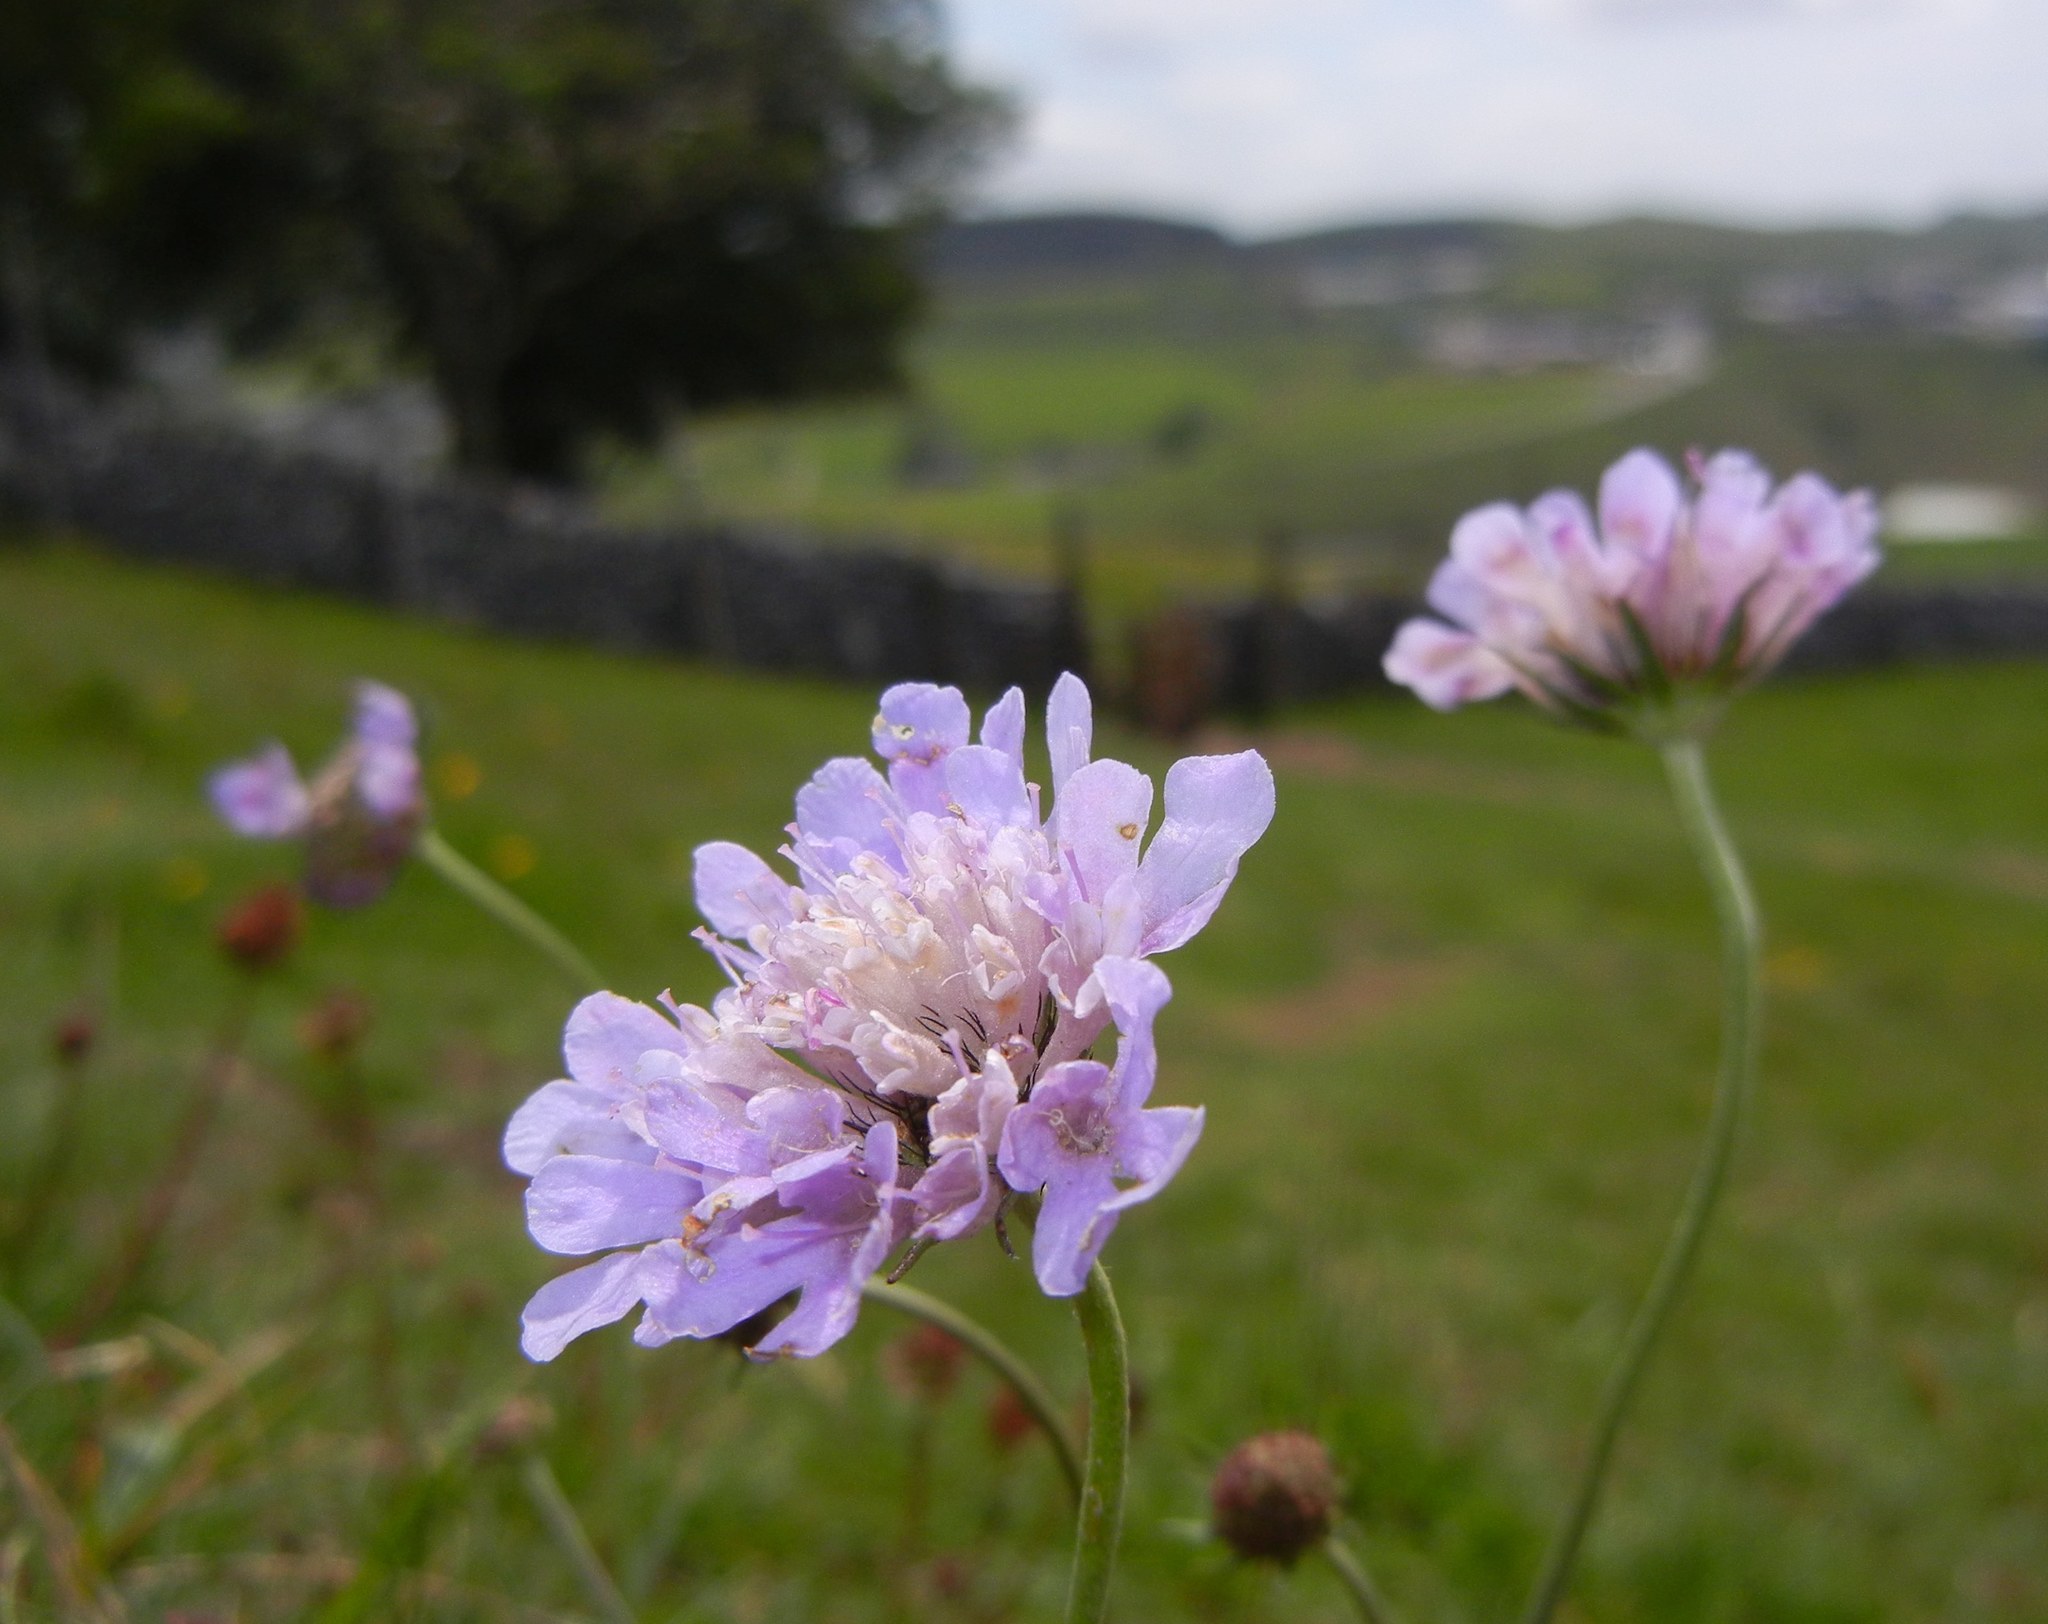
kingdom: Plantae
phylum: Tracheophyta
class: Magnoliopsida
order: Dipsacales
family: Caprifoliaceae
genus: Scabiosa
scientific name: Scabiosa columbaria
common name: Small scabious
